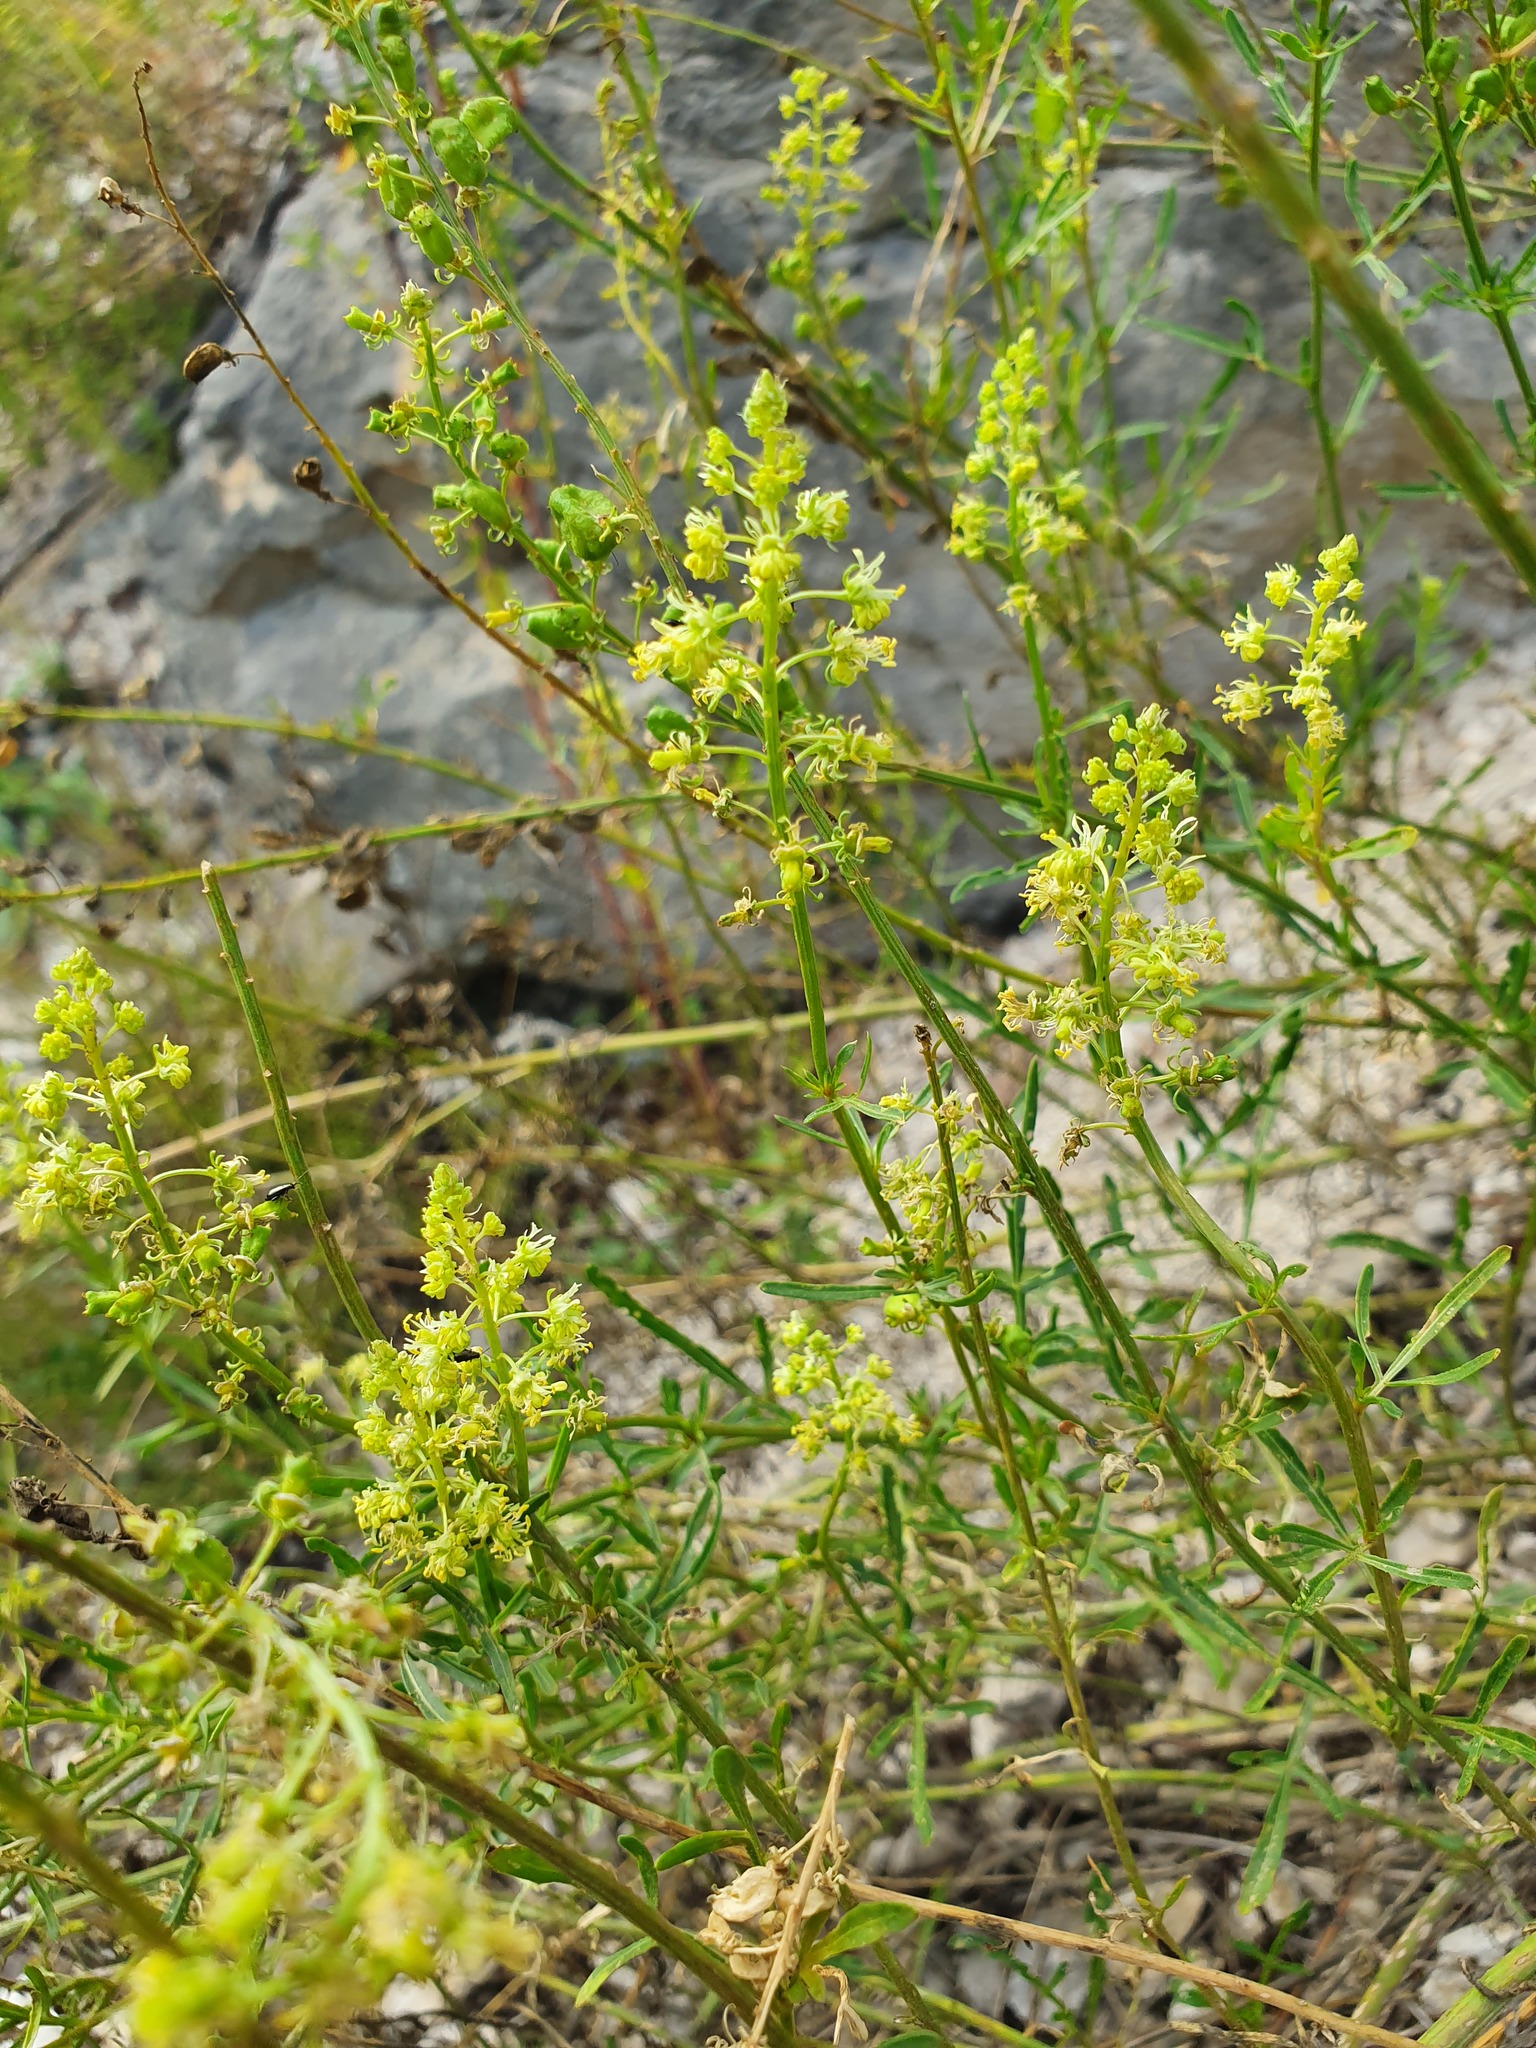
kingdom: Plantae
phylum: Tracheophyta
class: Magnoliopsida
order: Brassicales
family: Resedaceae
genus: Reseda
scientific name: Reseda lutea
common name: Wild mignonette
